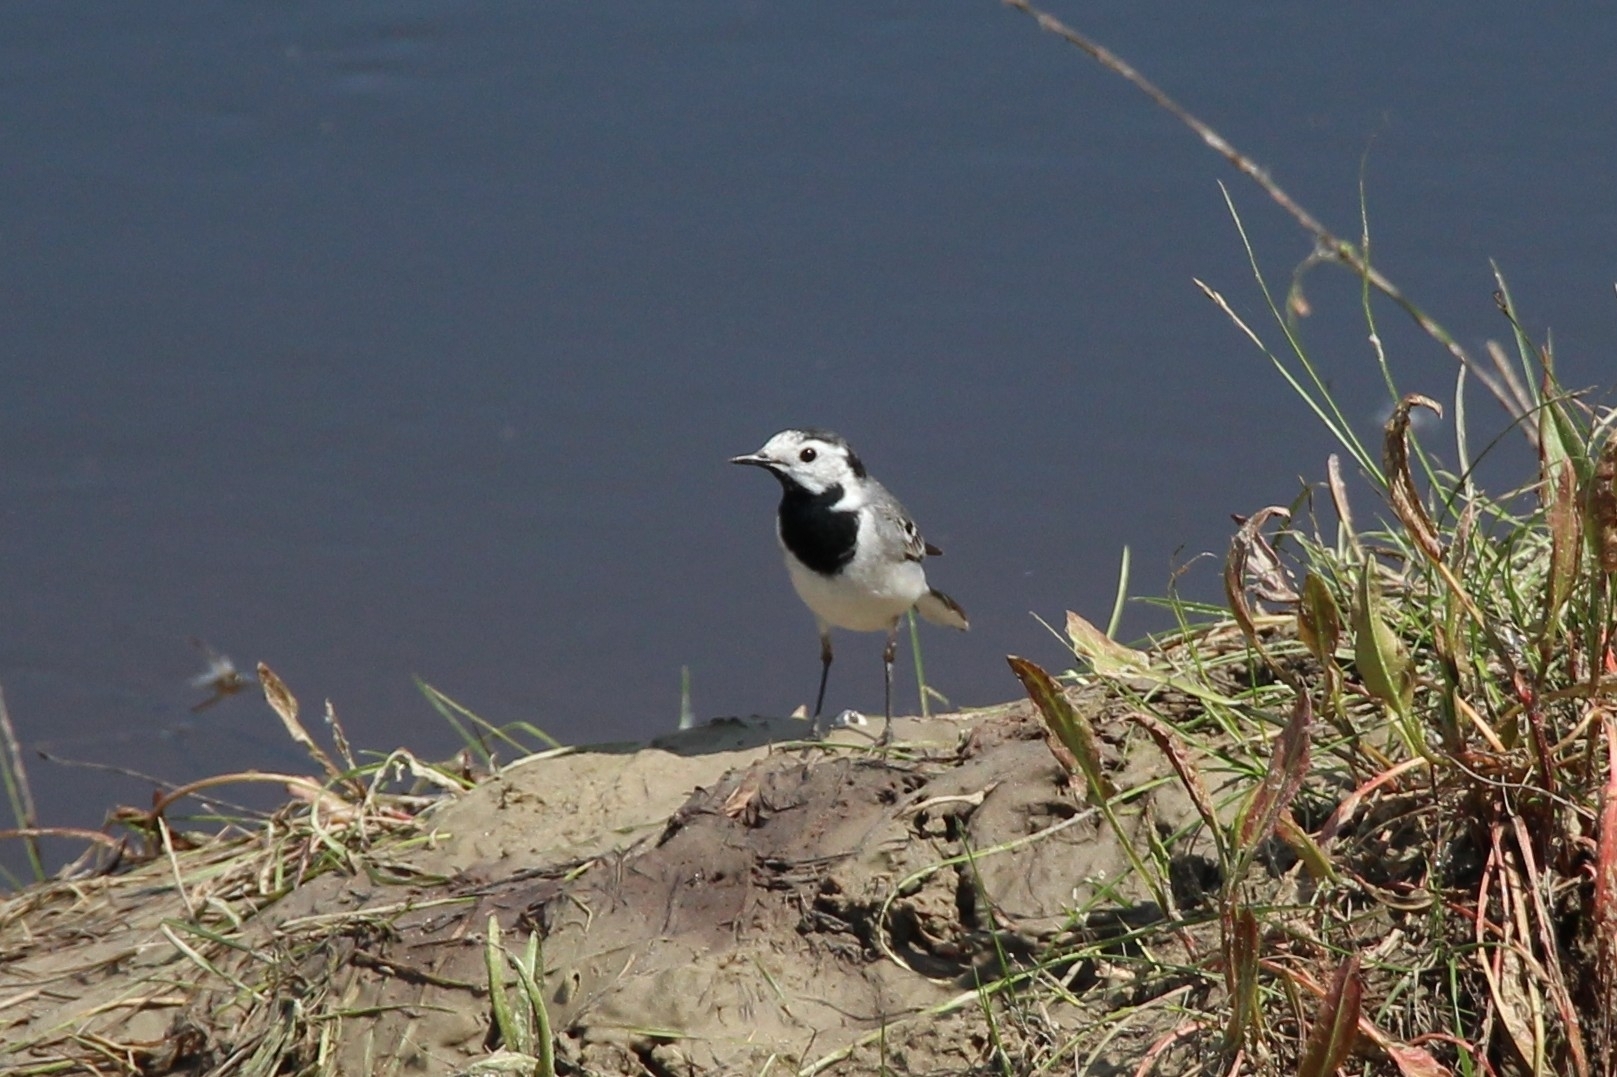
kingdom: Animalia
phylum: Chordata
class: Aves
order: Passeriformes
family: Motacillidae
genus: Motacilla
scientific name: Motacilla alba
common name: White wagtail
